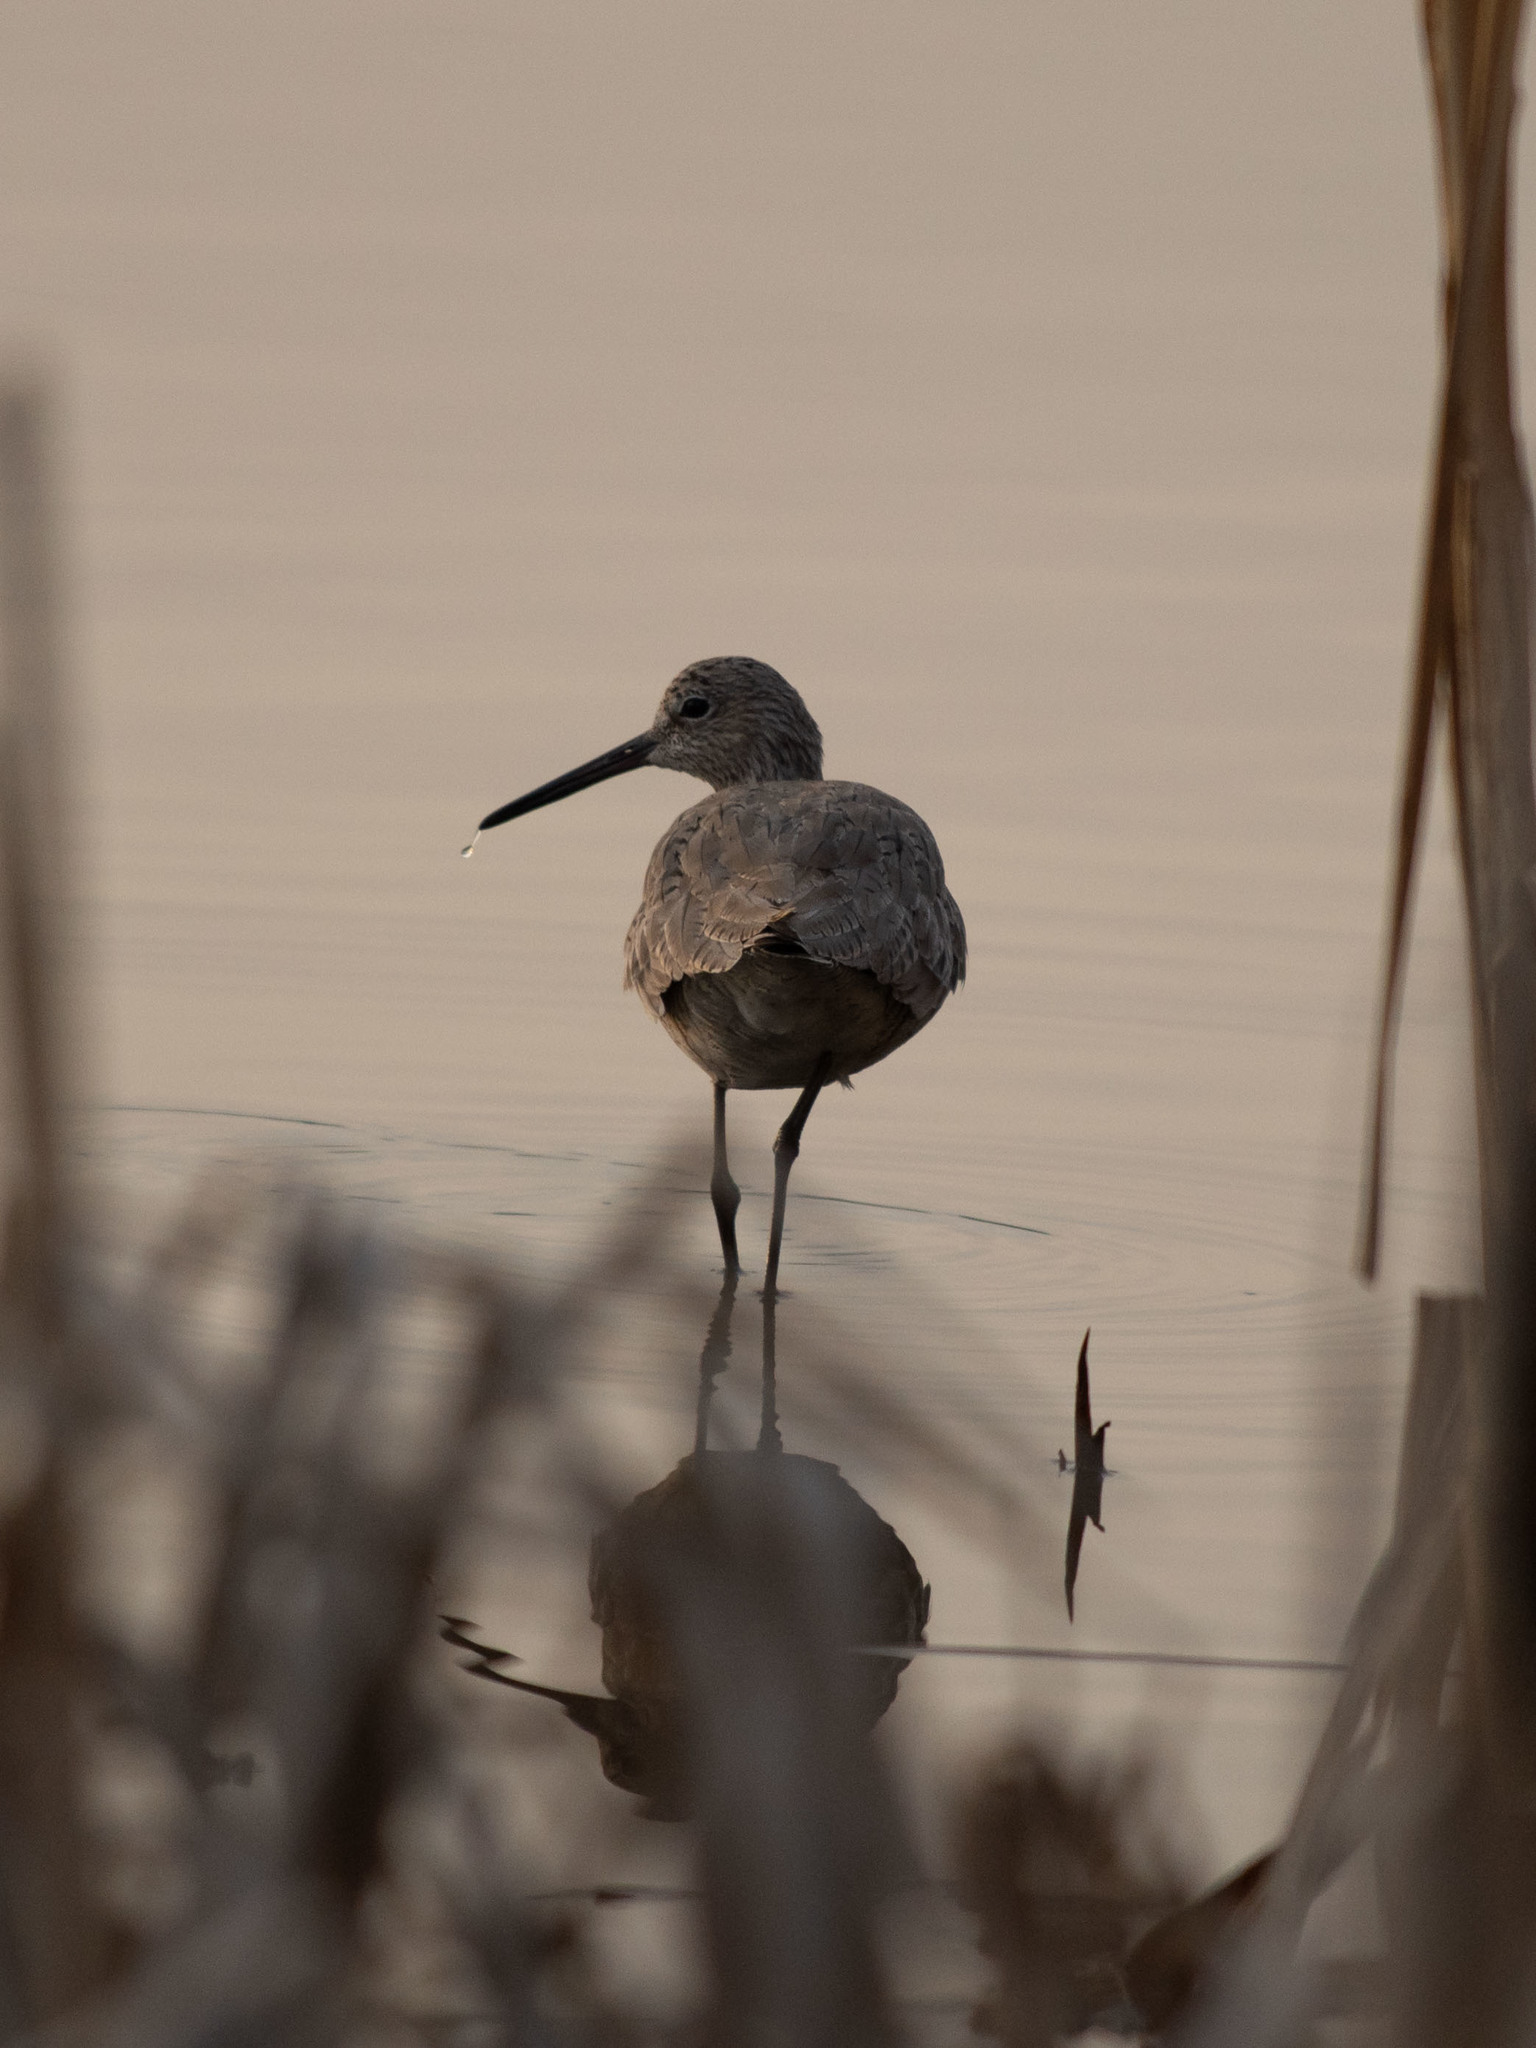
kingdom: Animalia
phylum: Chordata
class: Aves
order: Charadriiformes
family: Scolopacidae
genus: Tringa
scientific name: Tringa semipalmata
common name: Willet
